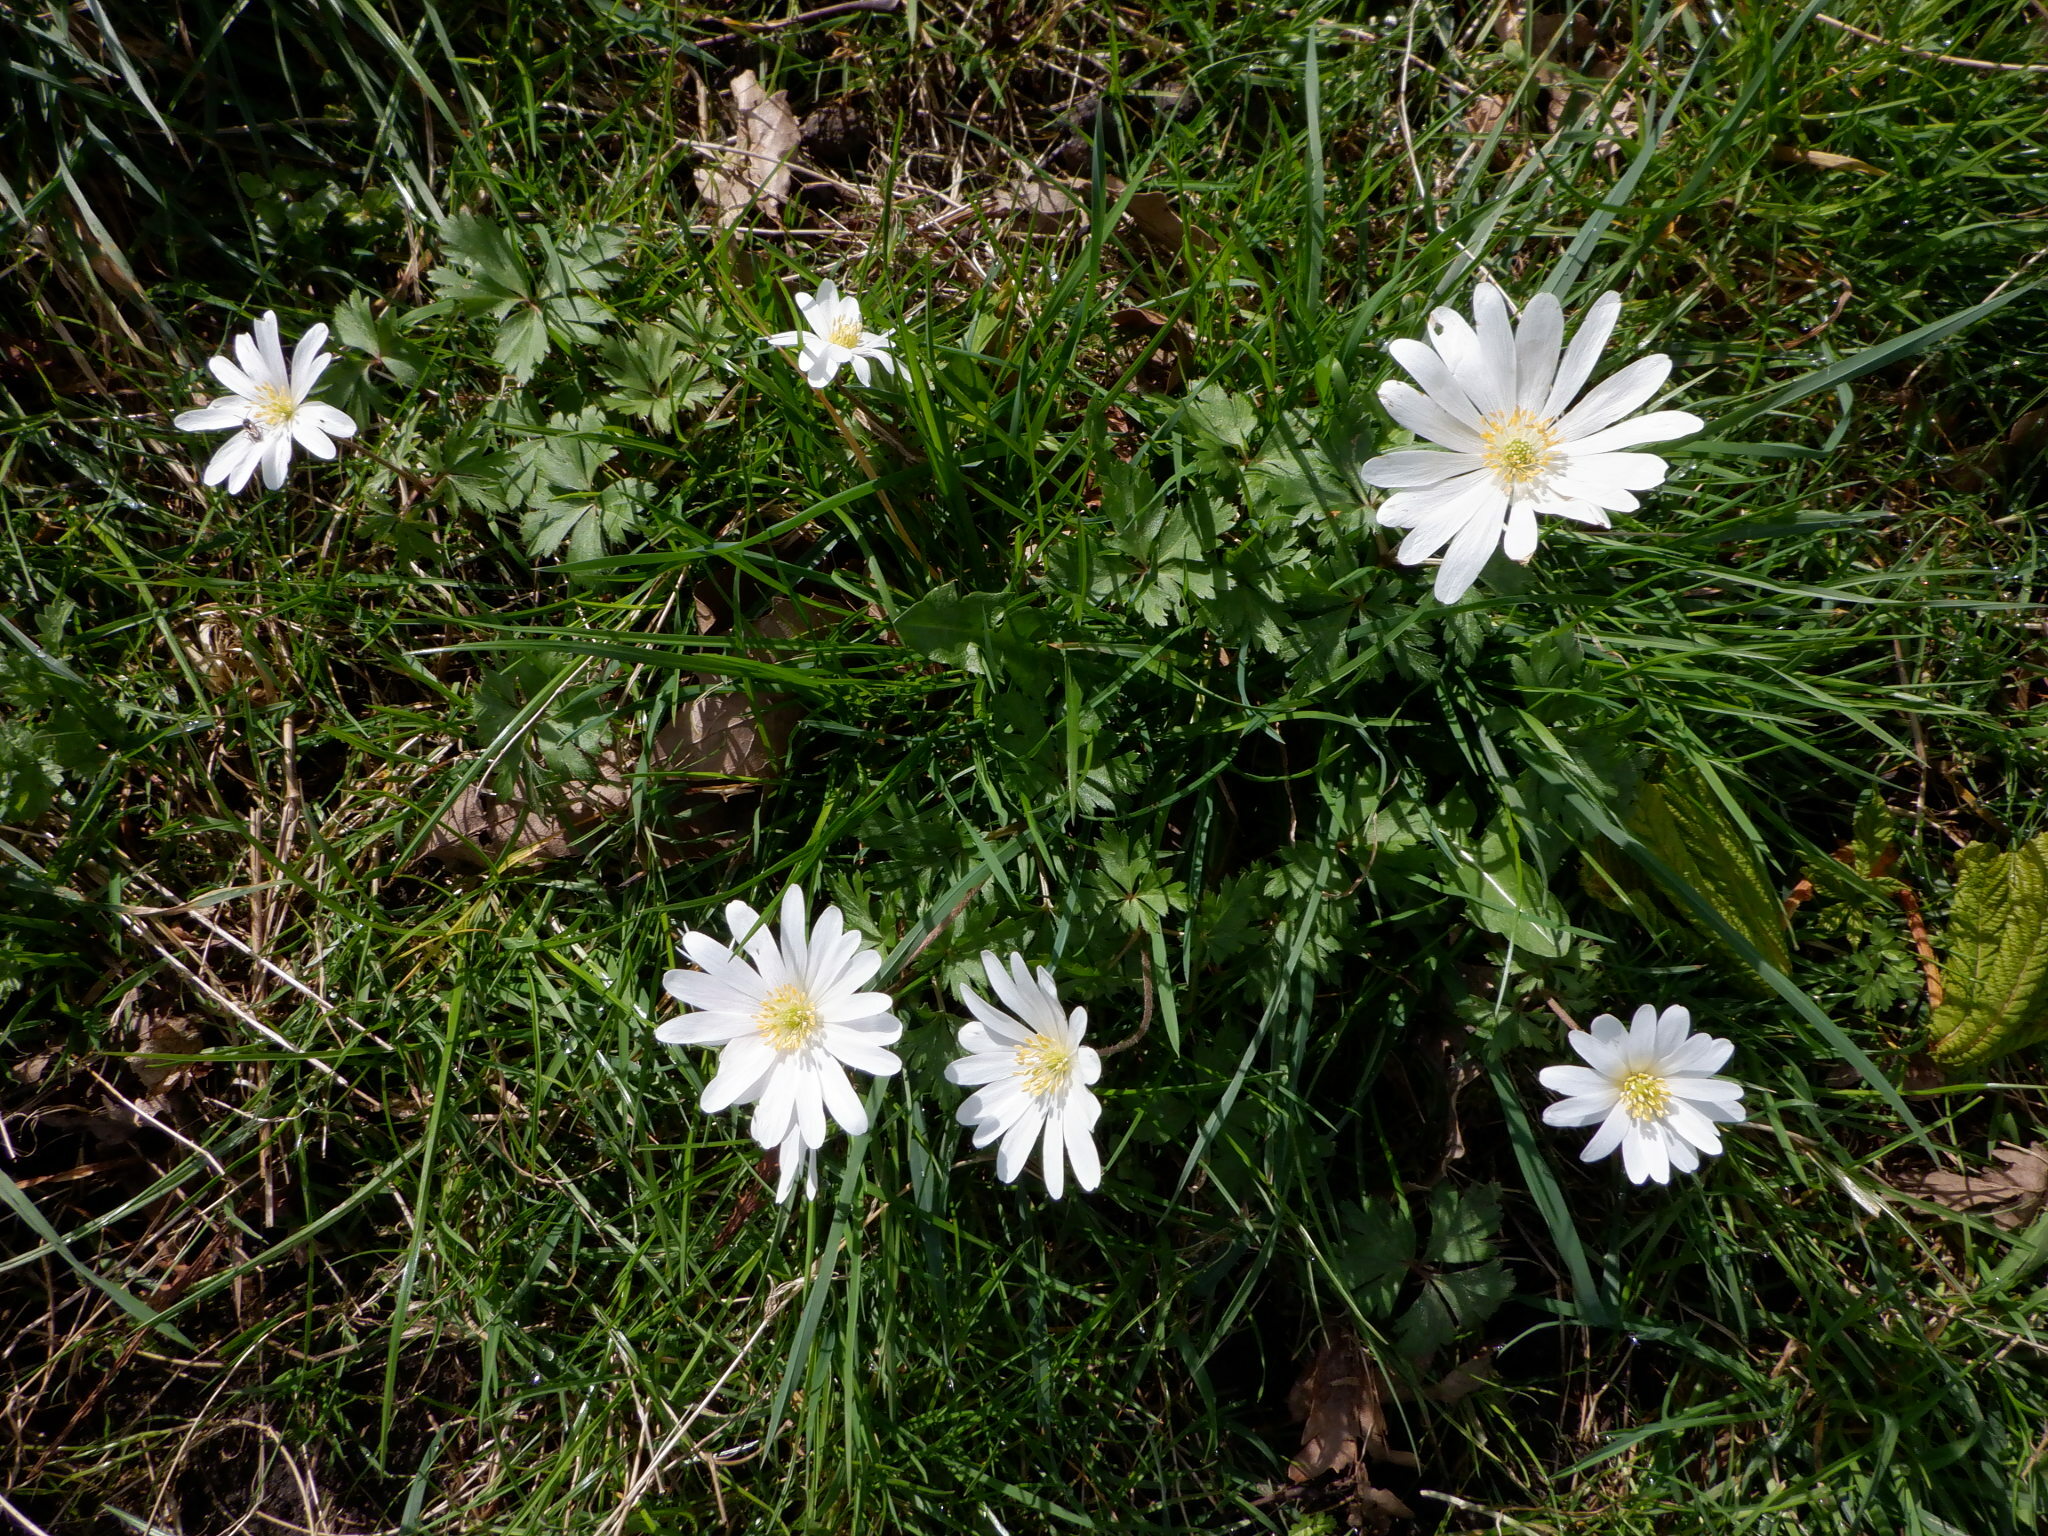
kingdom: Plantae
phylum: Tracheophyta
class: Magnoliopsida
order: Ranunculales
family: Ranunculaceae
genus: Anemone
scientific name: Anemone blanda
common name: Balkan anemone
